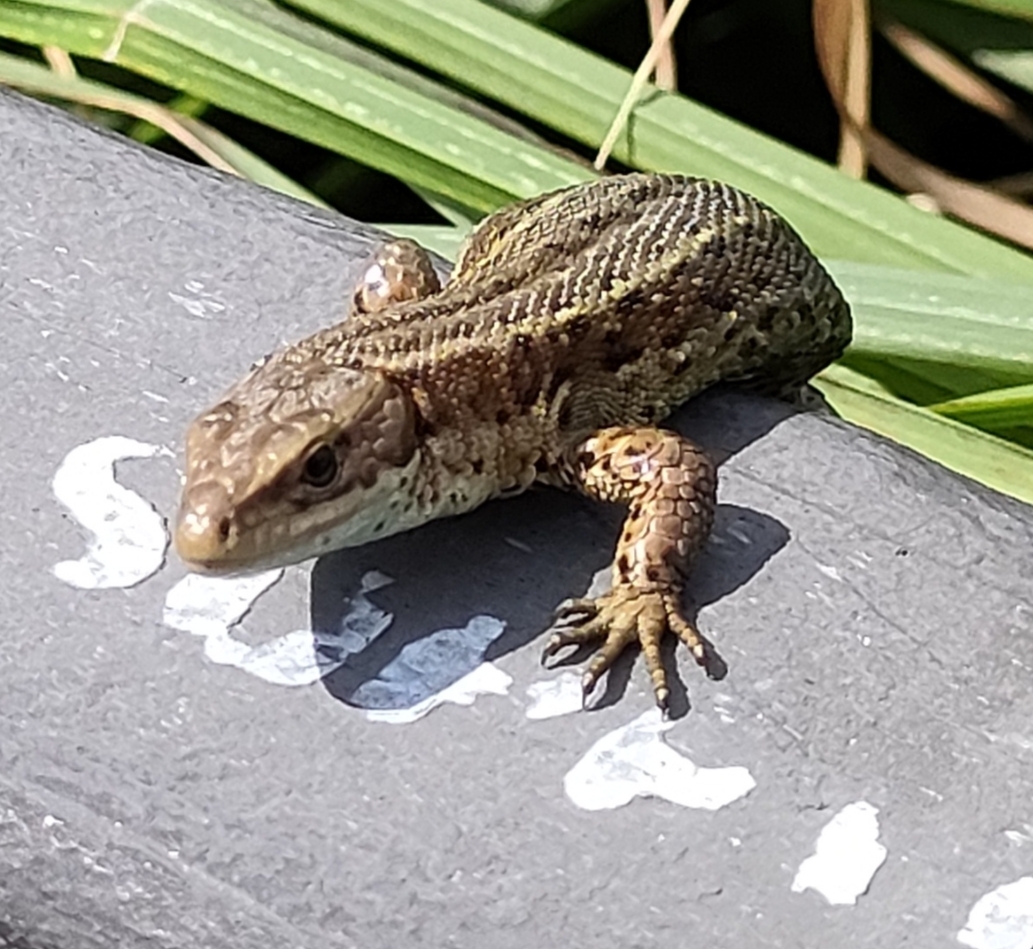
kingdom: Animalia
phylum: Chordata
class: Squamata
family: Lacertidae
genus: Zootoca
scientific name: Zootoca vivipara
